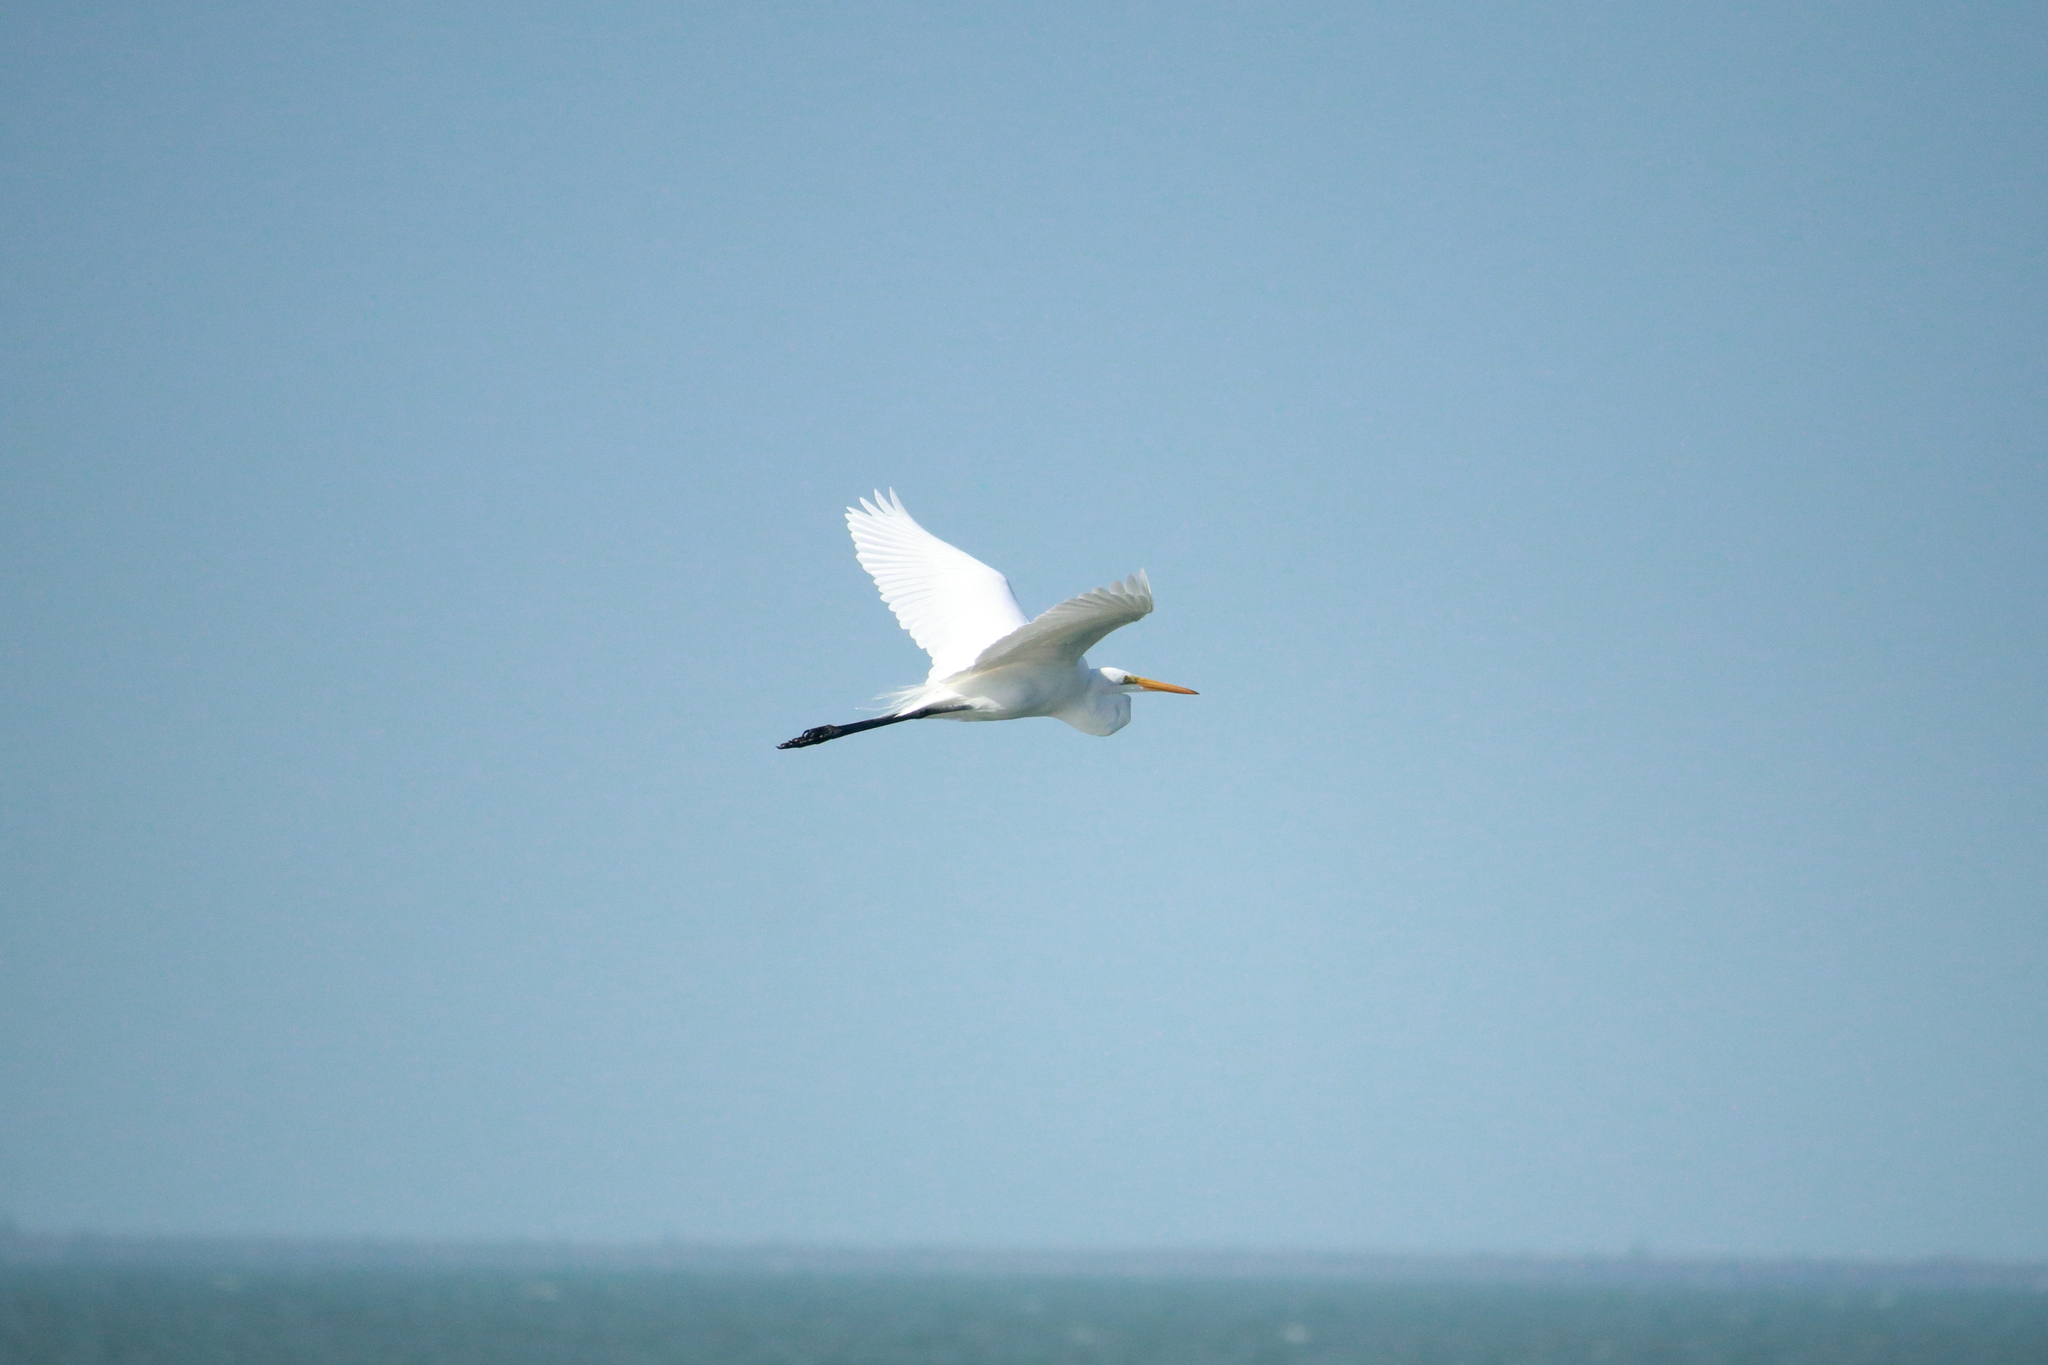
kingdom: Animalia
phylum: Chordata
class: Aves
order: Pelecaniformes
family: Ardeidae
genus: Ardea
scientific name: Ardea alba
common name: Great egret
